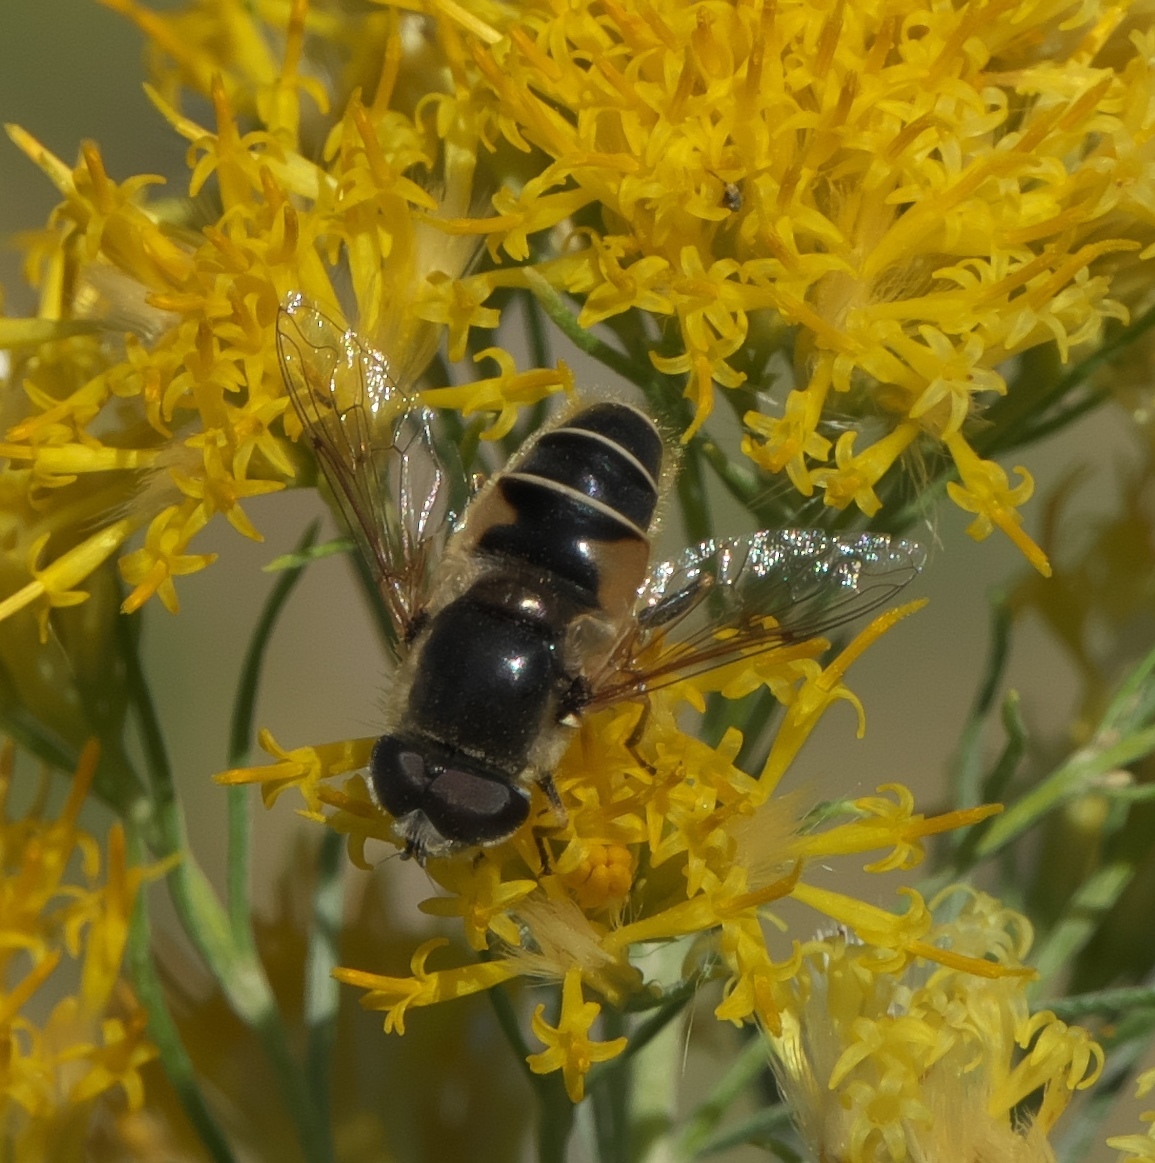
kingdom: Animalia
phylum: Arthropoda
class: Insecta
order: Diptera
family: Syrphidae
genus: Eristalis
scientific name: Eristalis hirta
